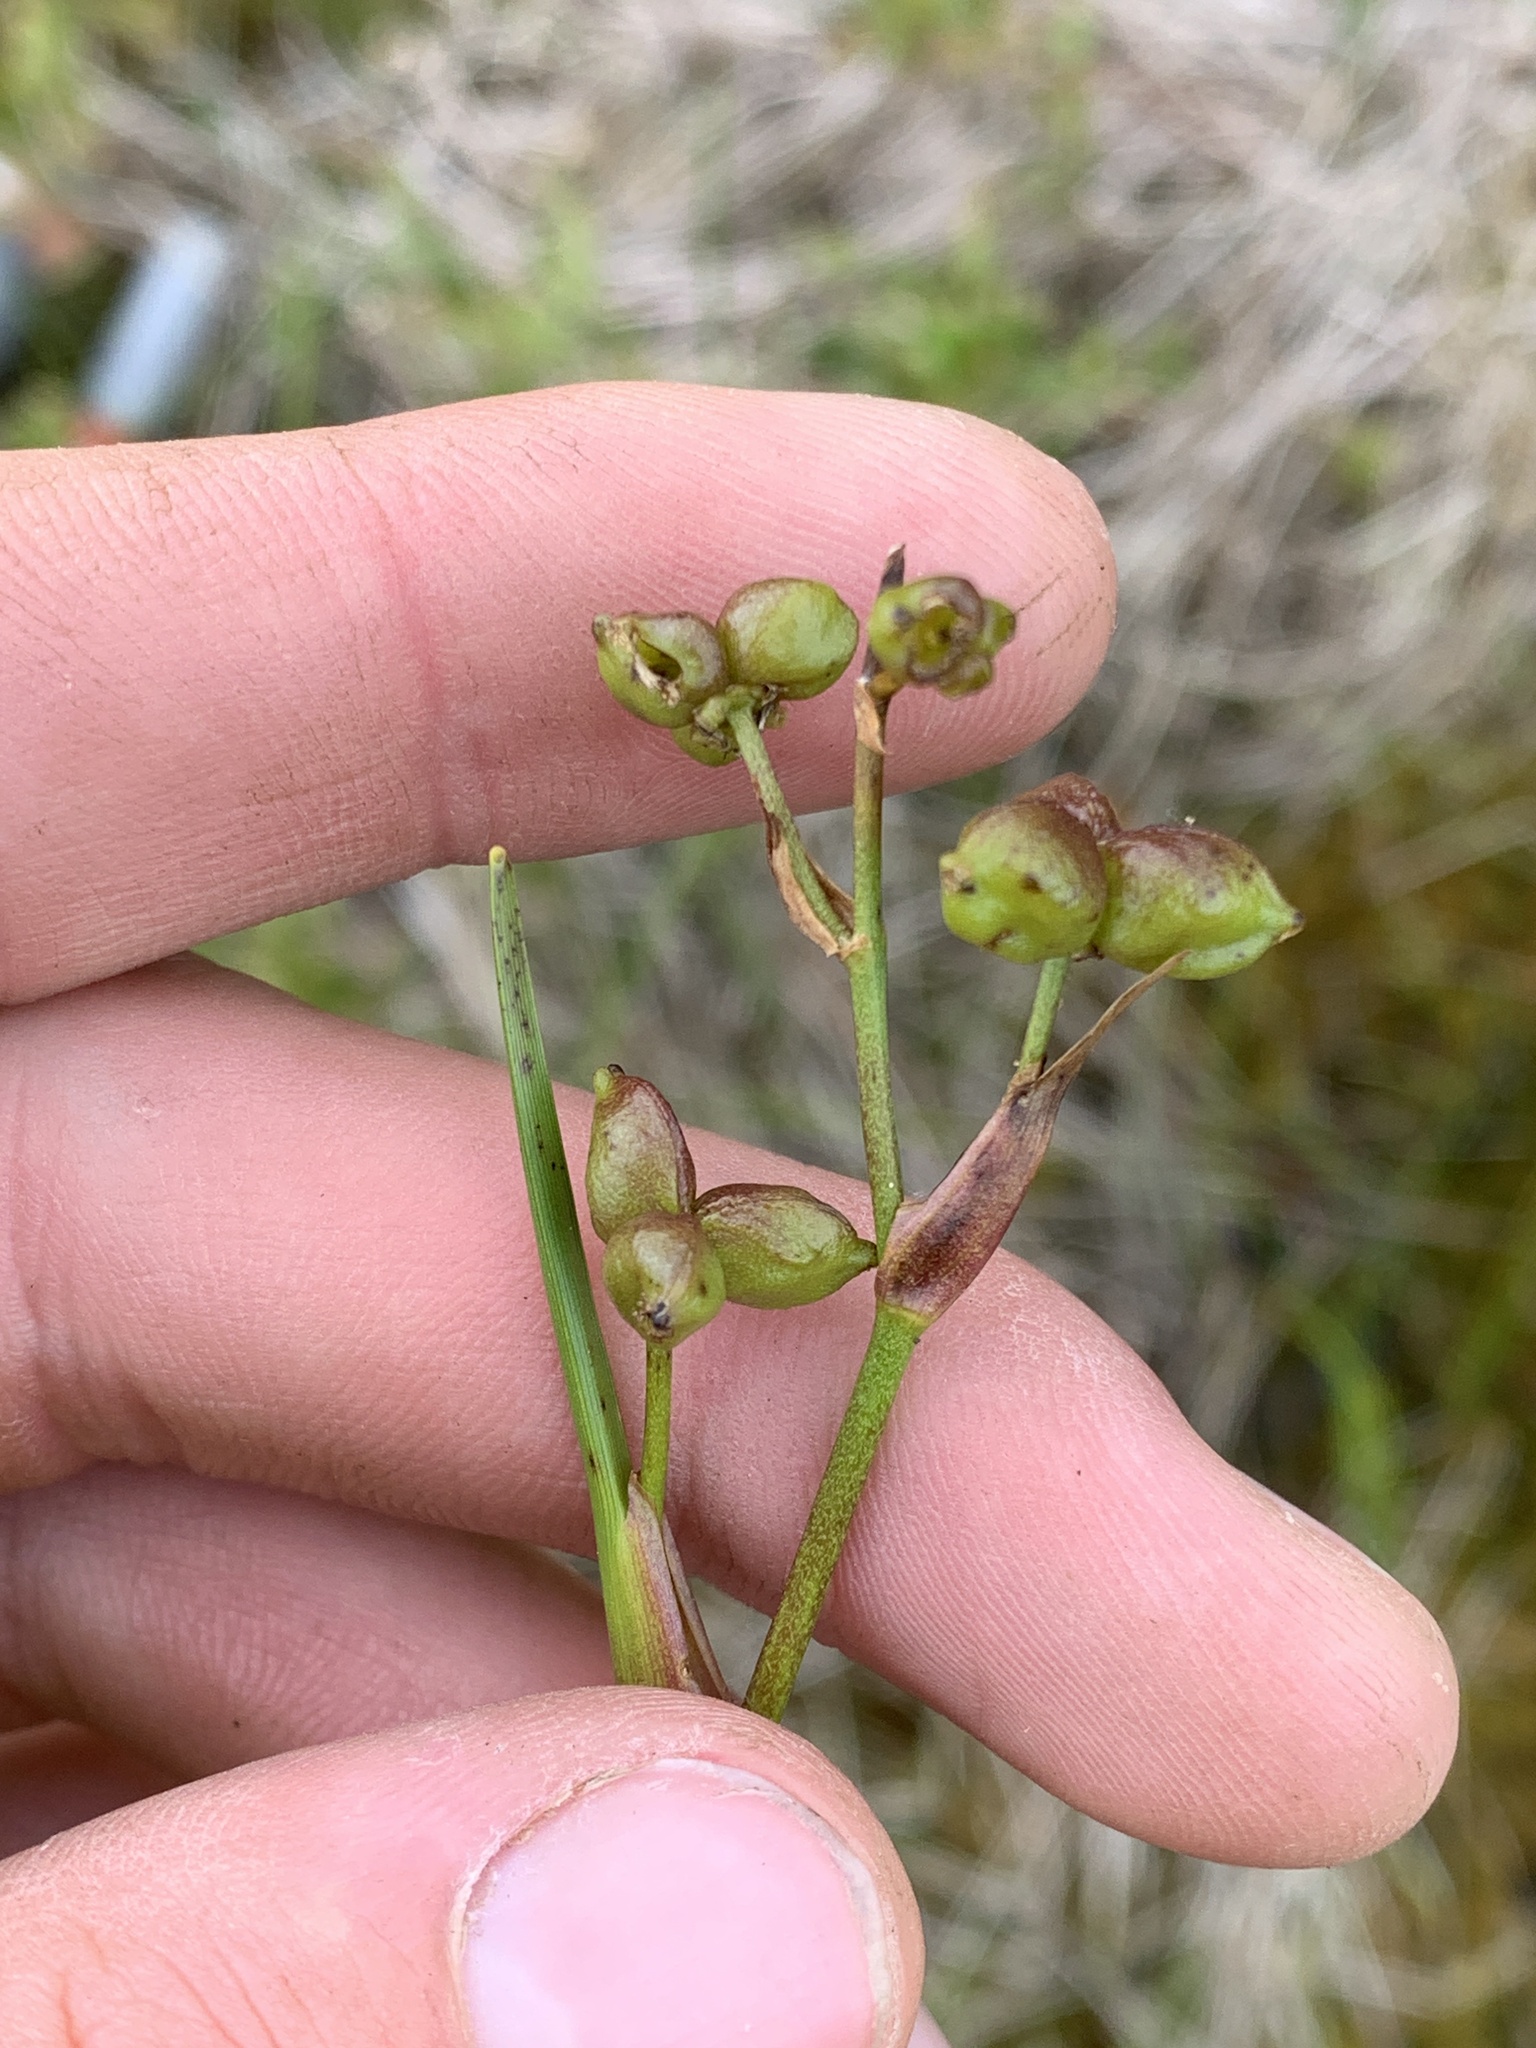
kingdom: Plantae
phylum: Tracheophyta
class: Liliopsida
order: Alismatales
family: Scheuchzeriaceae
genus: Scheuchzeria
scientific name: Scheuchzeria palustris
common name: Rannoch-rush
